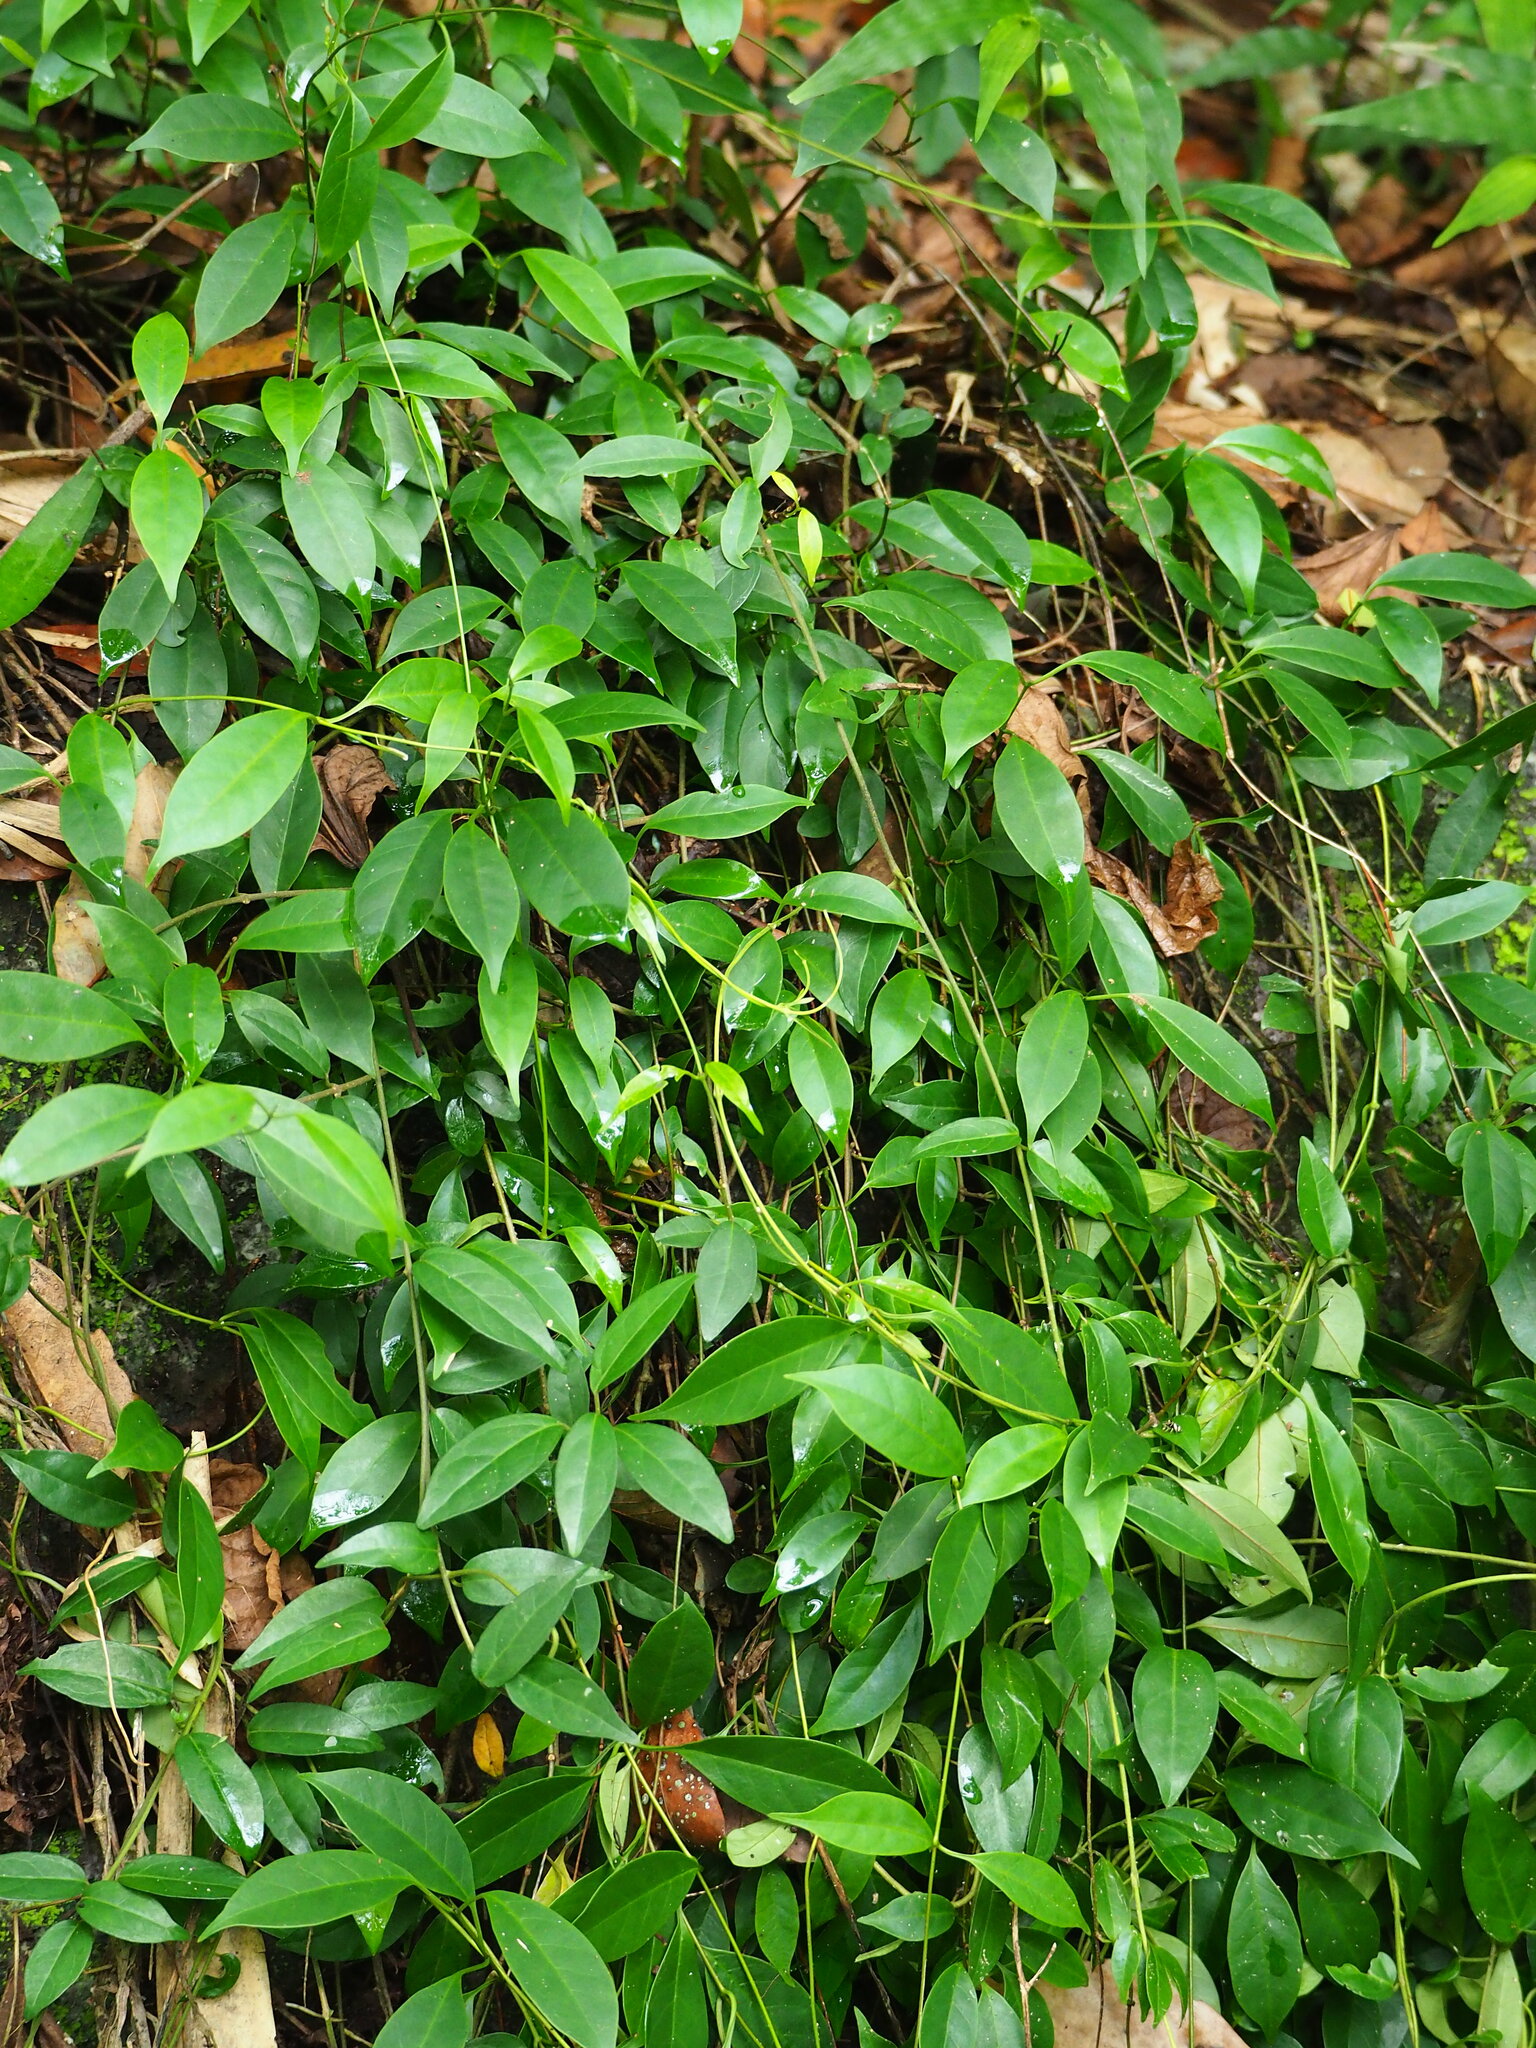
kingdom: Plantae
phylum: Tracheophyta
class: Magnoliopsida
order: Gentianales
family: Apocynaceae
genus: Urceola
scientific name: Urceola rosea
